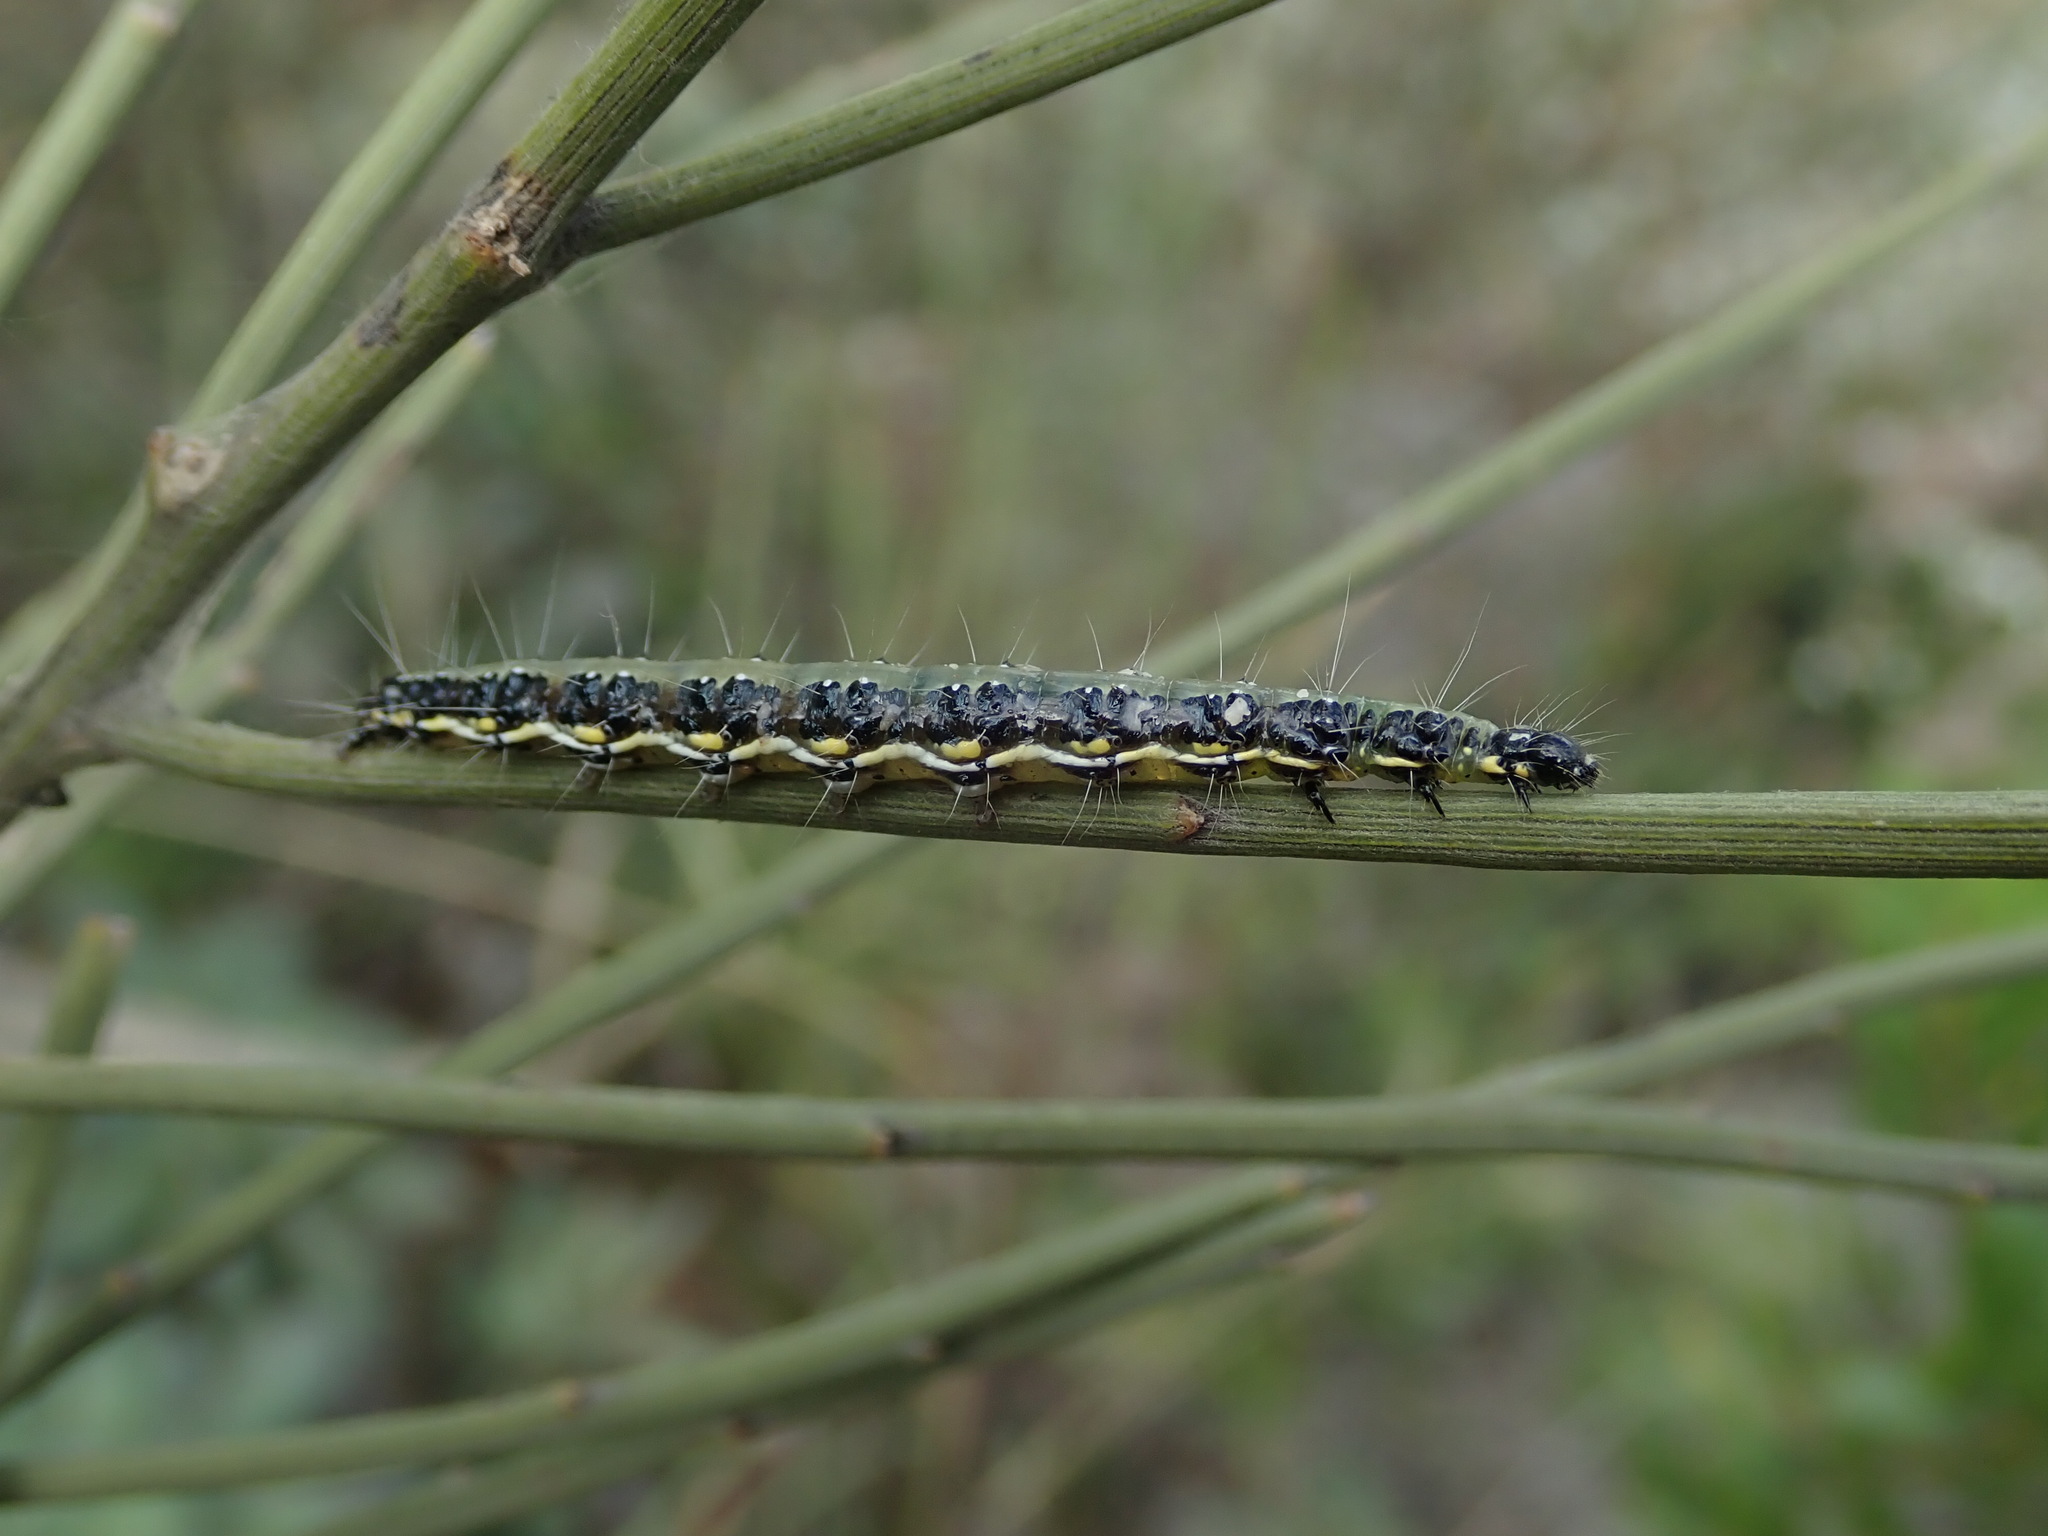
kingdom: Animalia
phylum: Arthropoda
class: Insecta
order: Lepidoptera
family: Crambidae
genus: Uresiphita
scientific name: Uresiphita gilvata
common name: Yellow-underwing pearl
